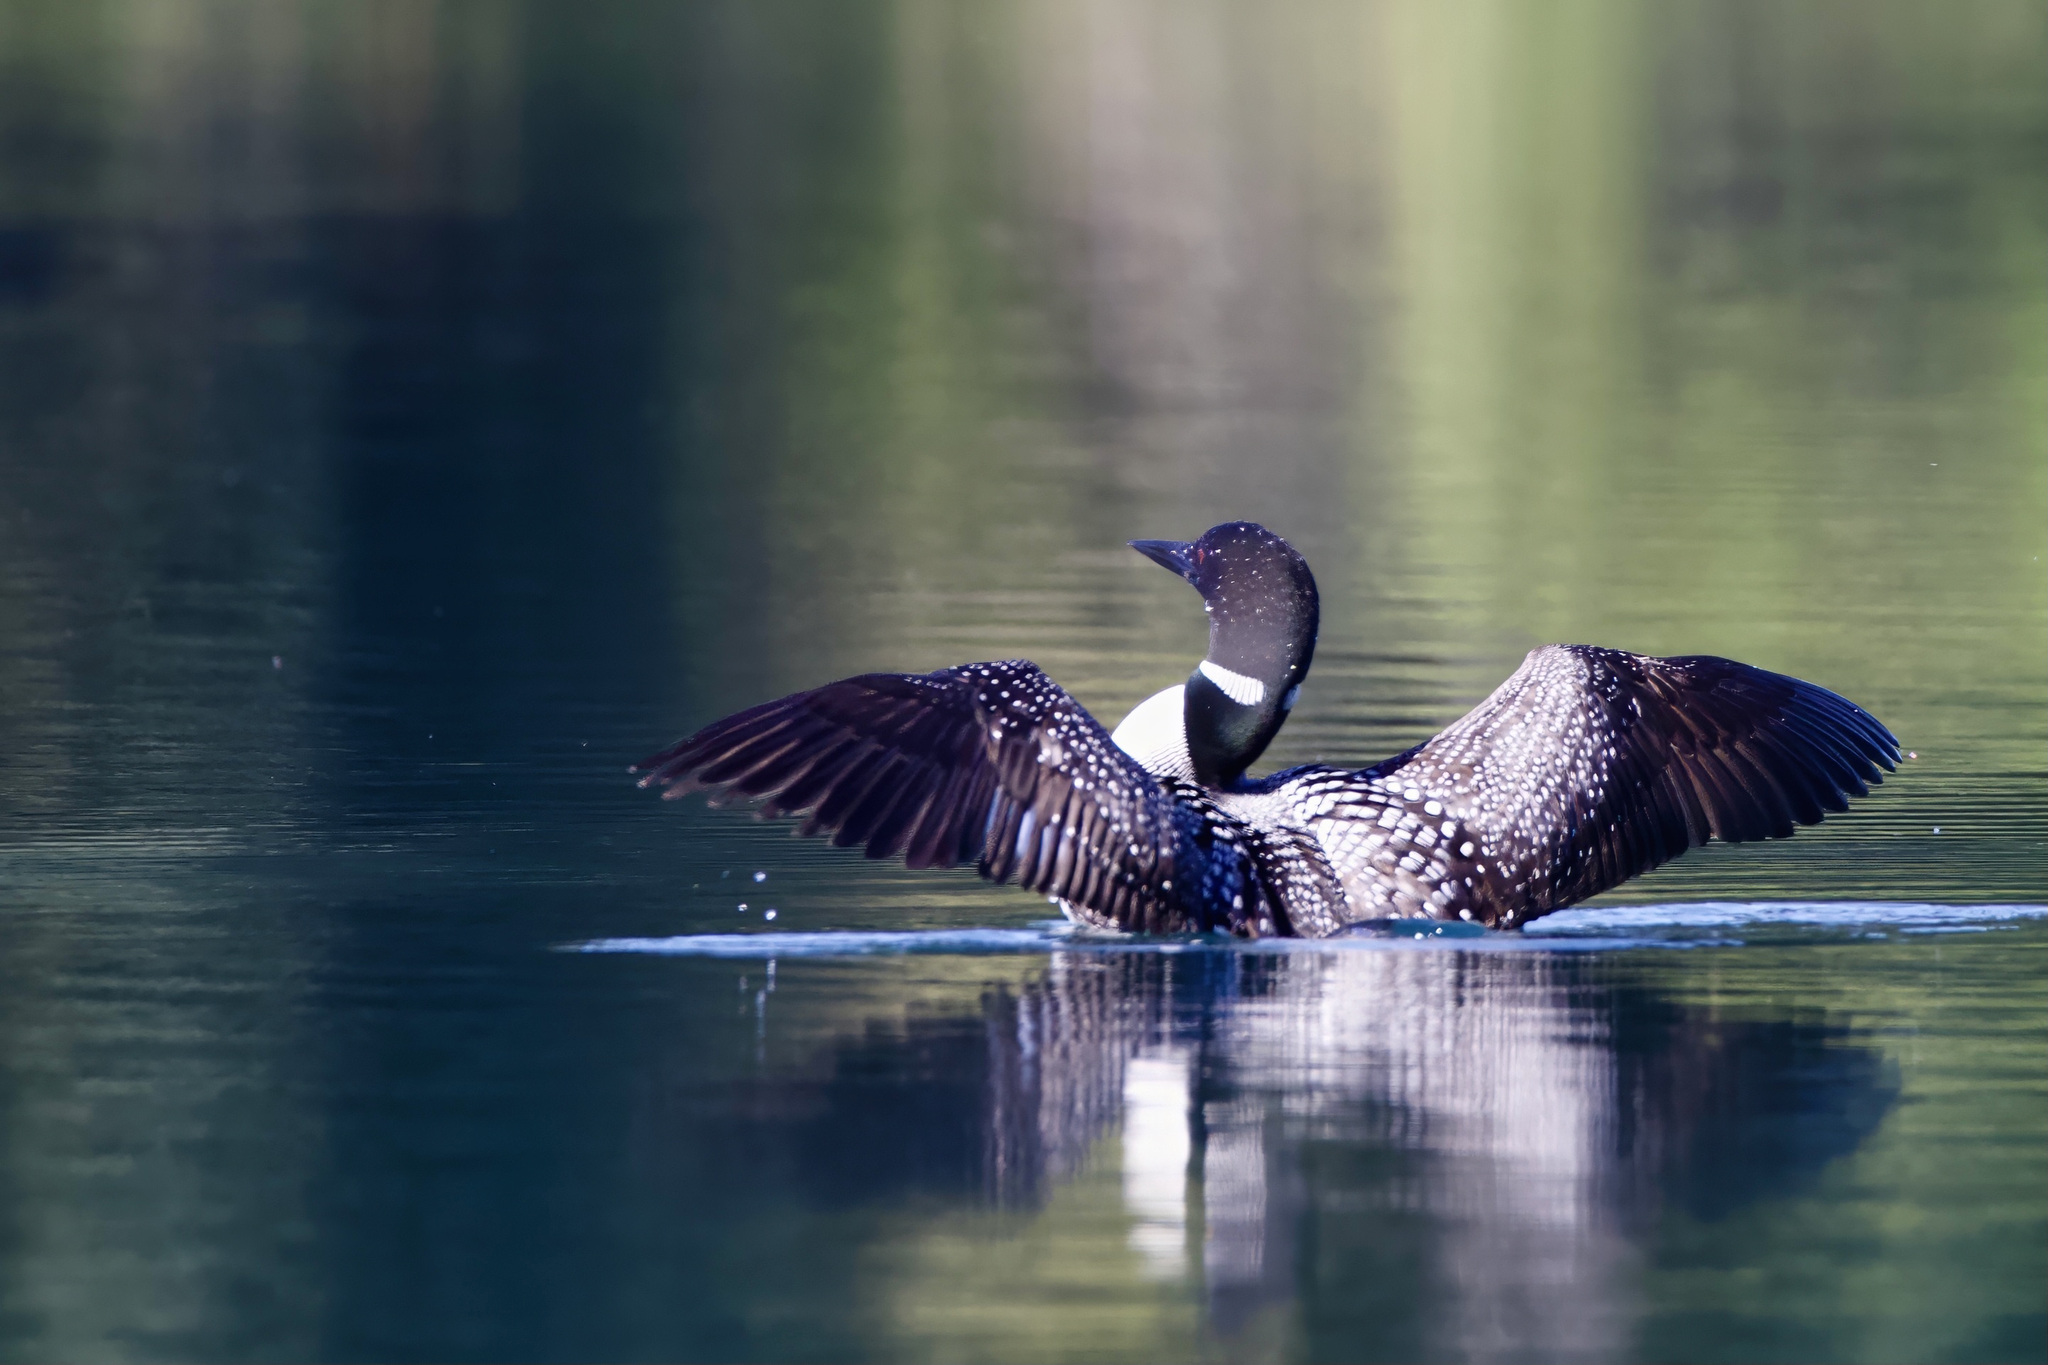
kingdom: Animalia
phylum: Chordata
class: Aves
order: Gaviiformes
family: Gaviidae
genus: Gavia
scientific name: Gavia immer
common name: Common loon
